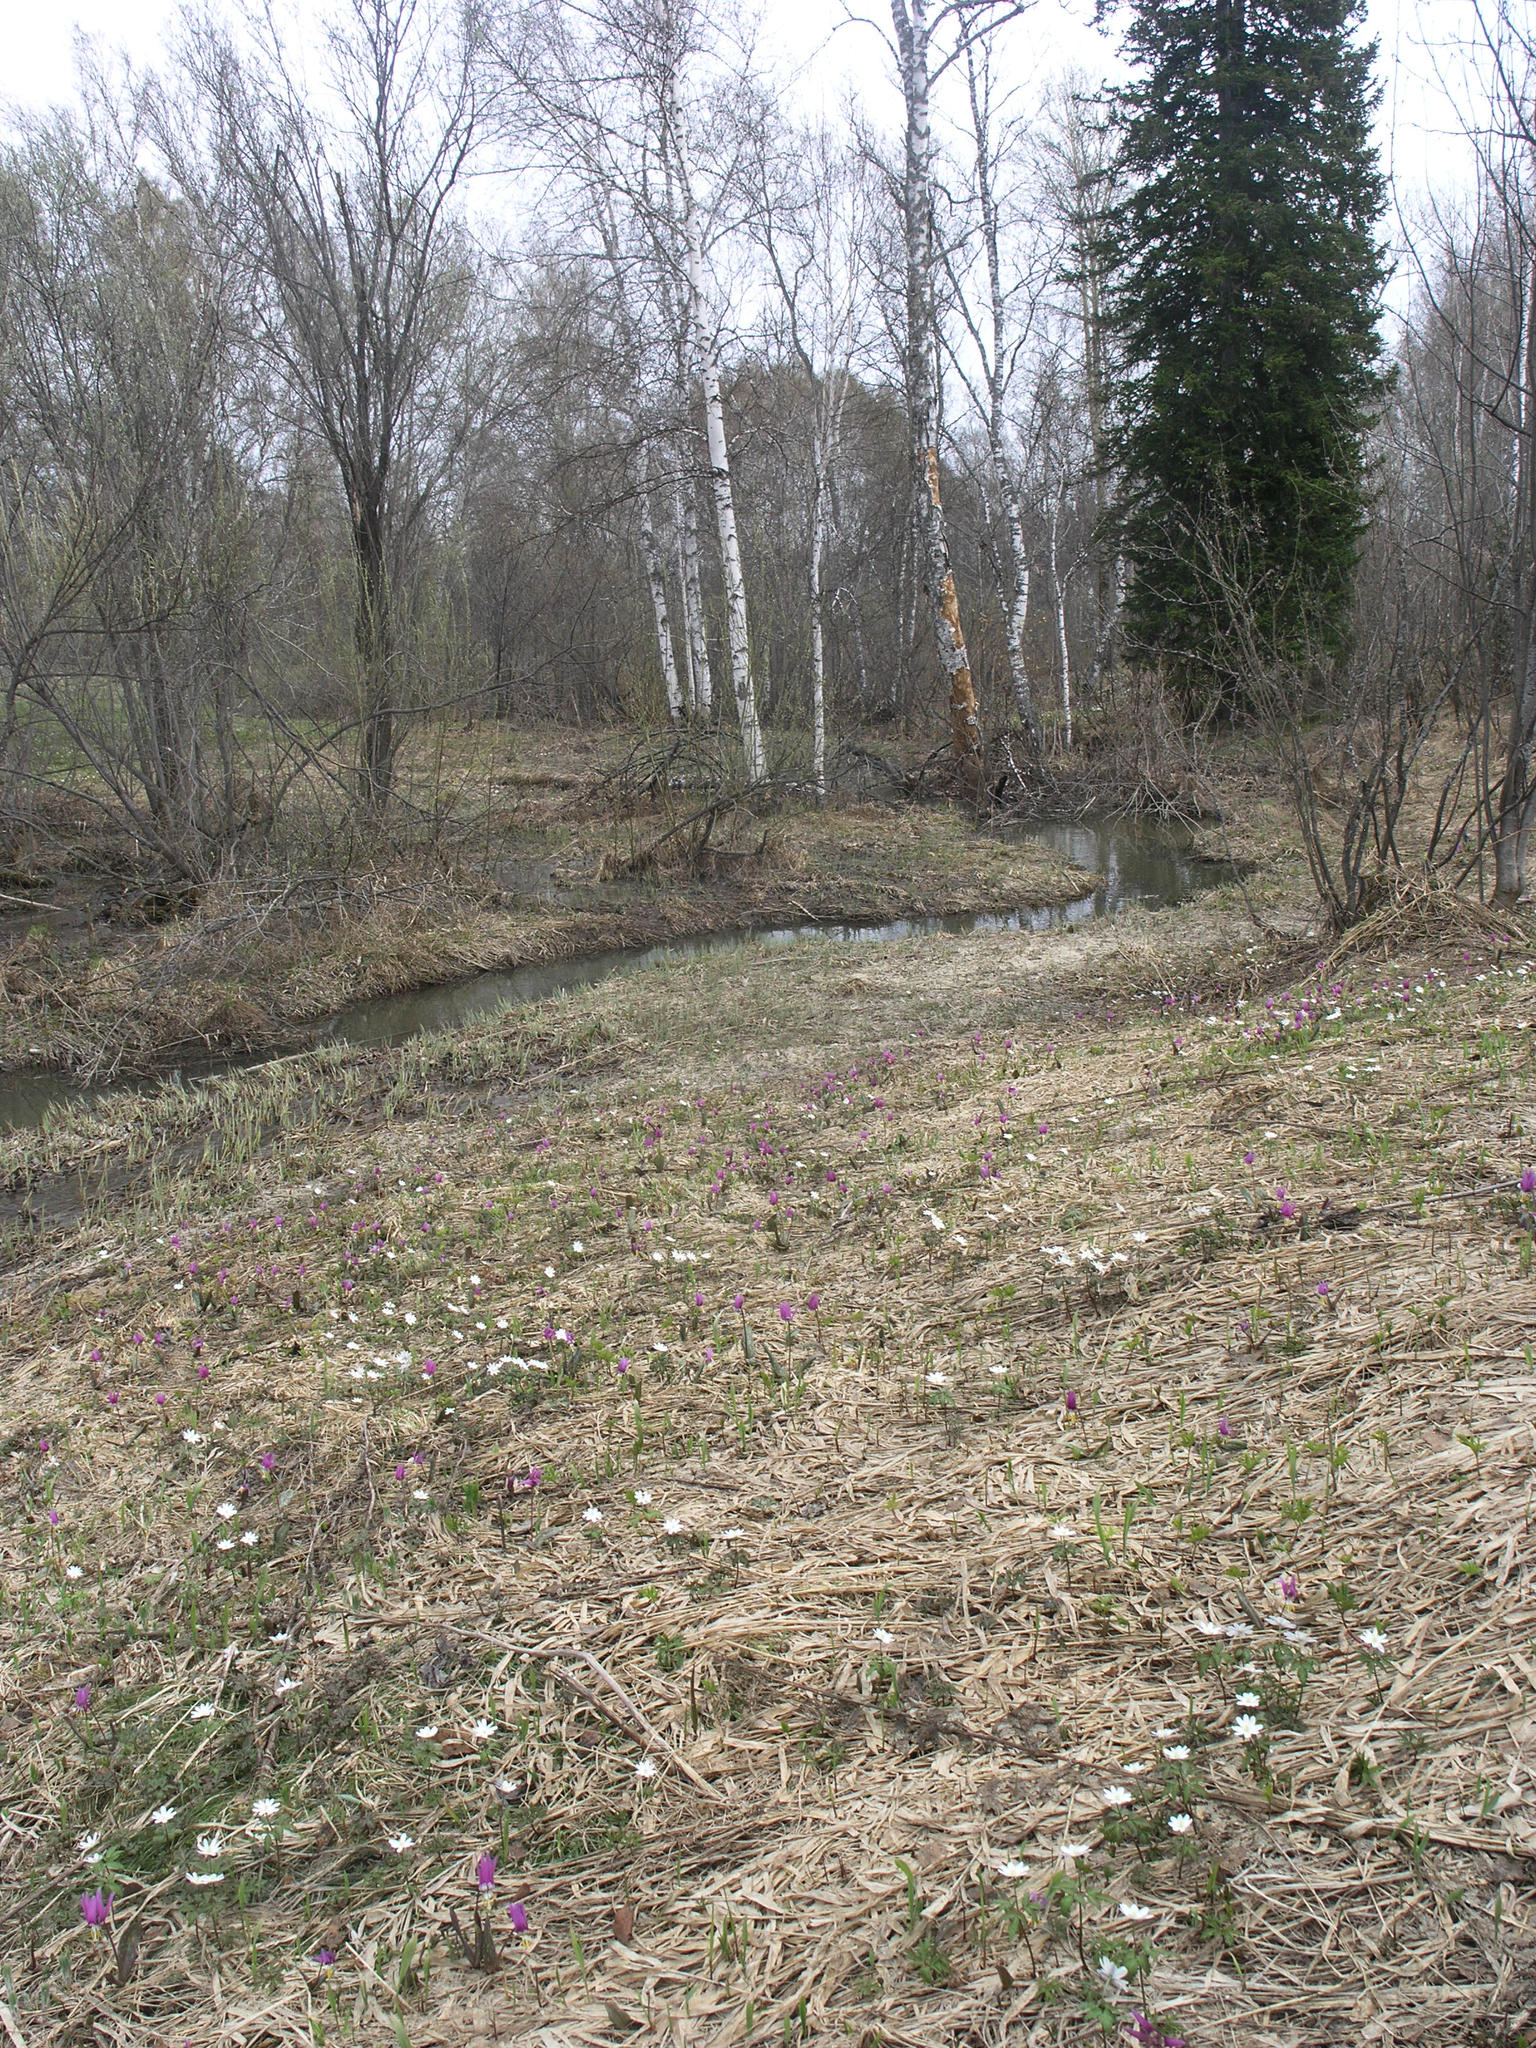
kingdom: Plantae
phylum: Tracheophyta
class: Liliopsida
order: Liliales
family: Liliaceae
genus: Erythronium
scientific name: Erythronium sibiricum
